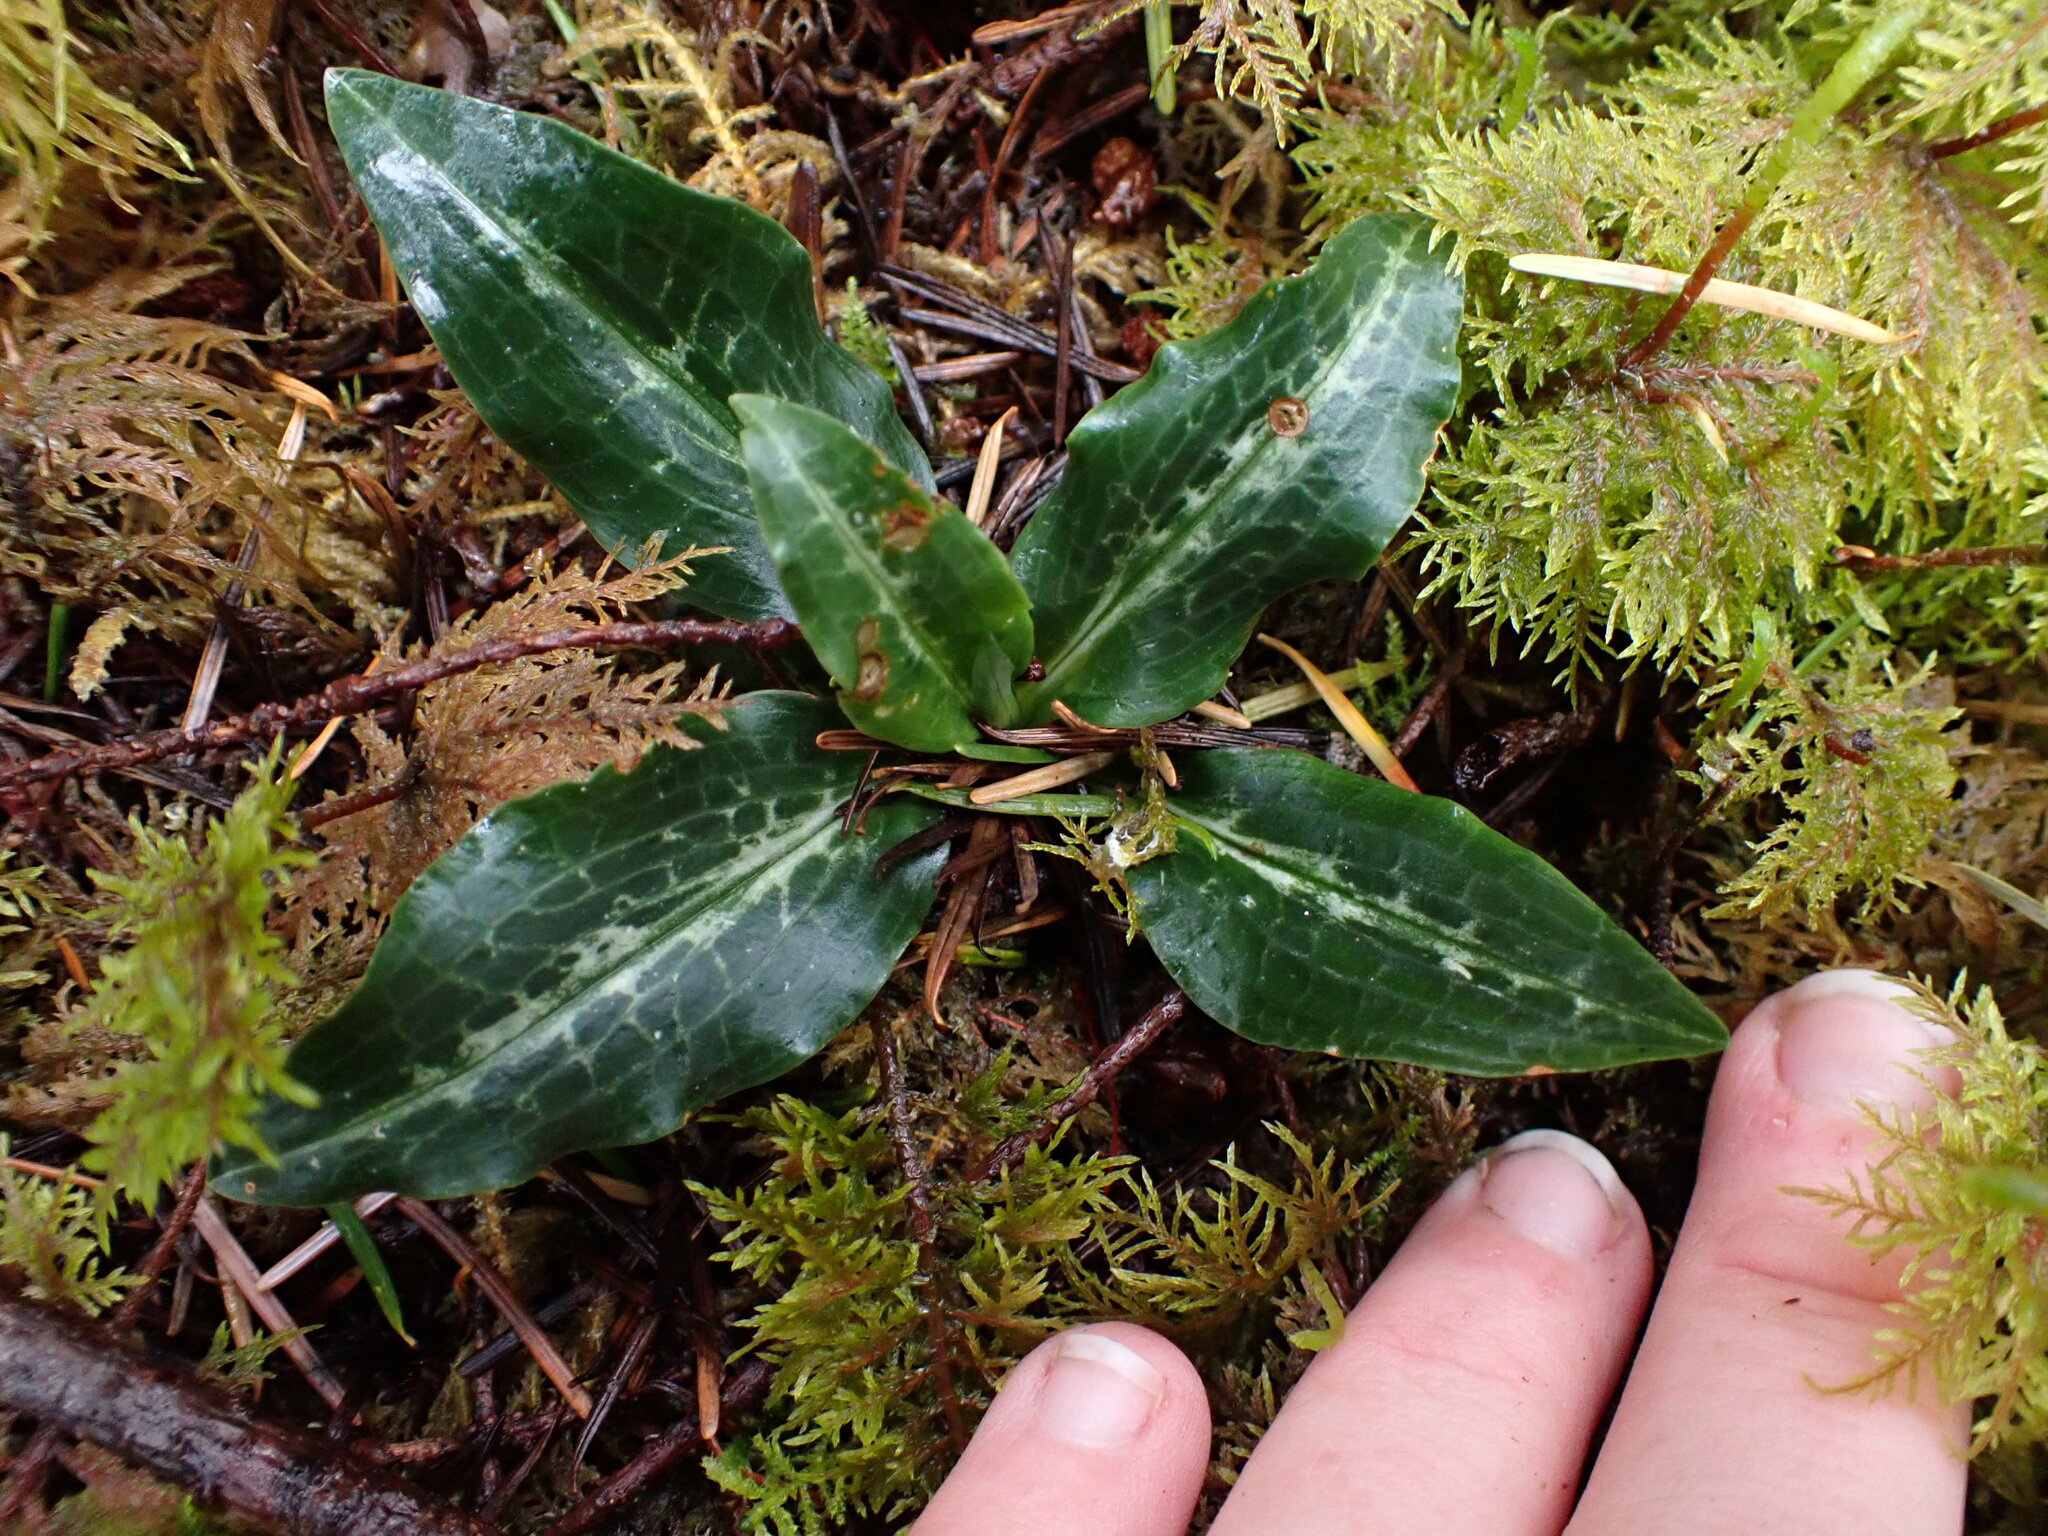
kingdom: Plantae
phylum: Tracheophyta
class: Liliopsida
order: Asparagales
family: Orchidaceae
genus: Goodyera
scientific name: Goodyera oblongifolia
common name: Giant rattlesnake-plantain
